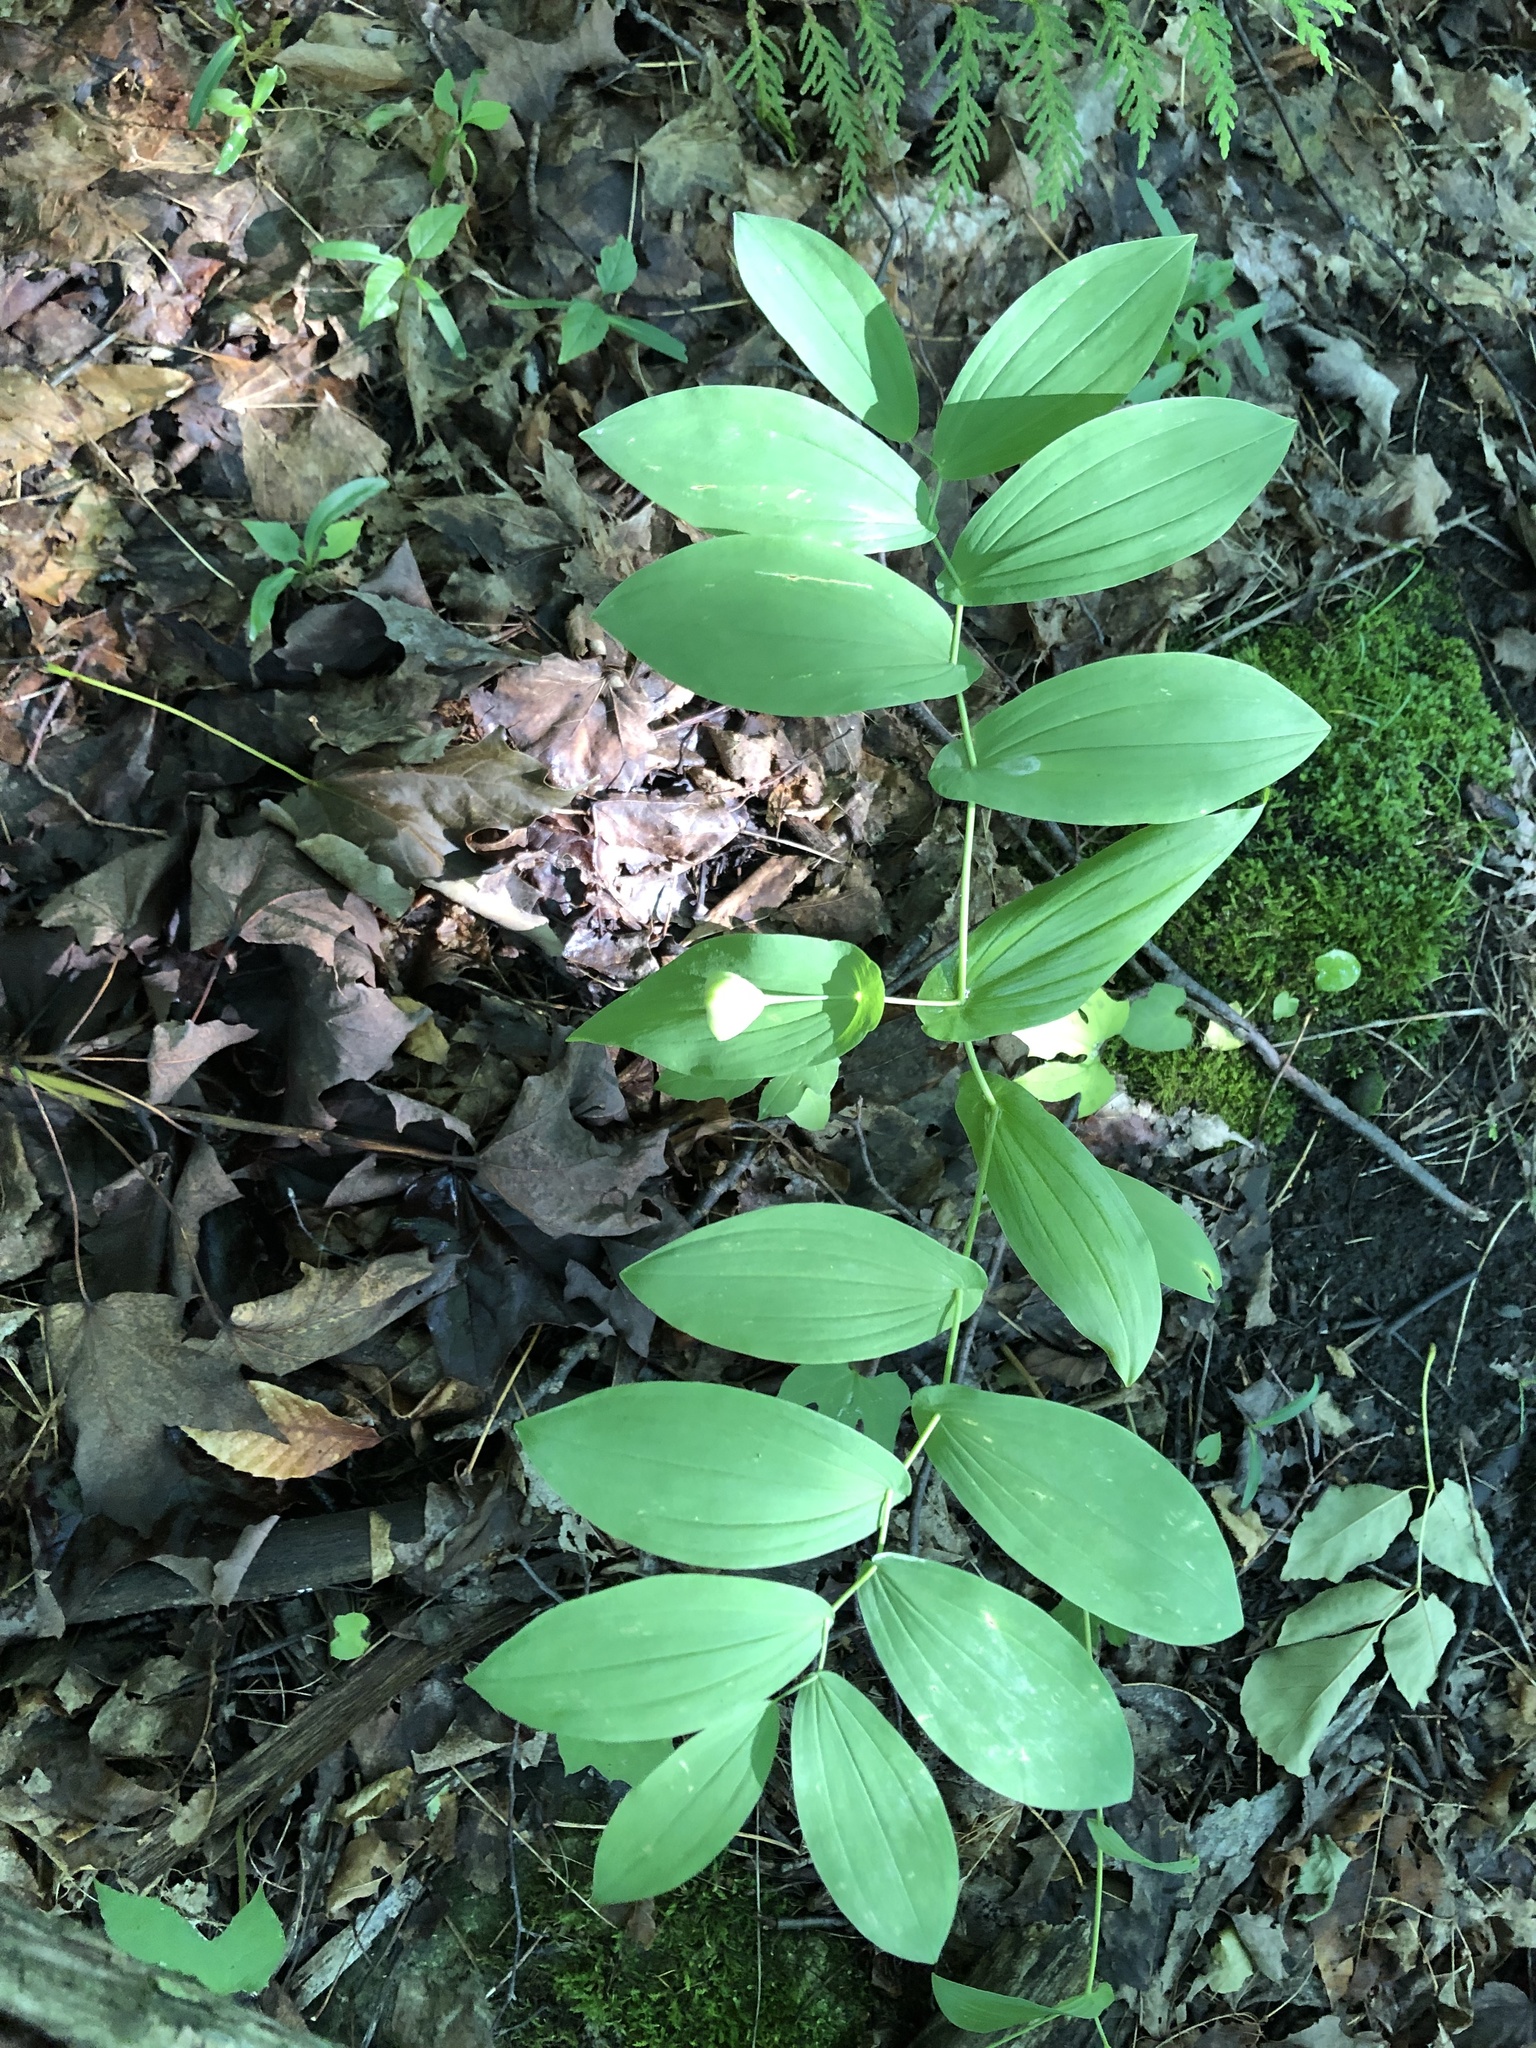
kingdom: Plantae
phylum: Tracheophyta
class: Liliopsida
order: Liliales
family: Colchicaceae
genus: Uvularia
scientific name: Uvularia grandiflora
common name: Bellwort
